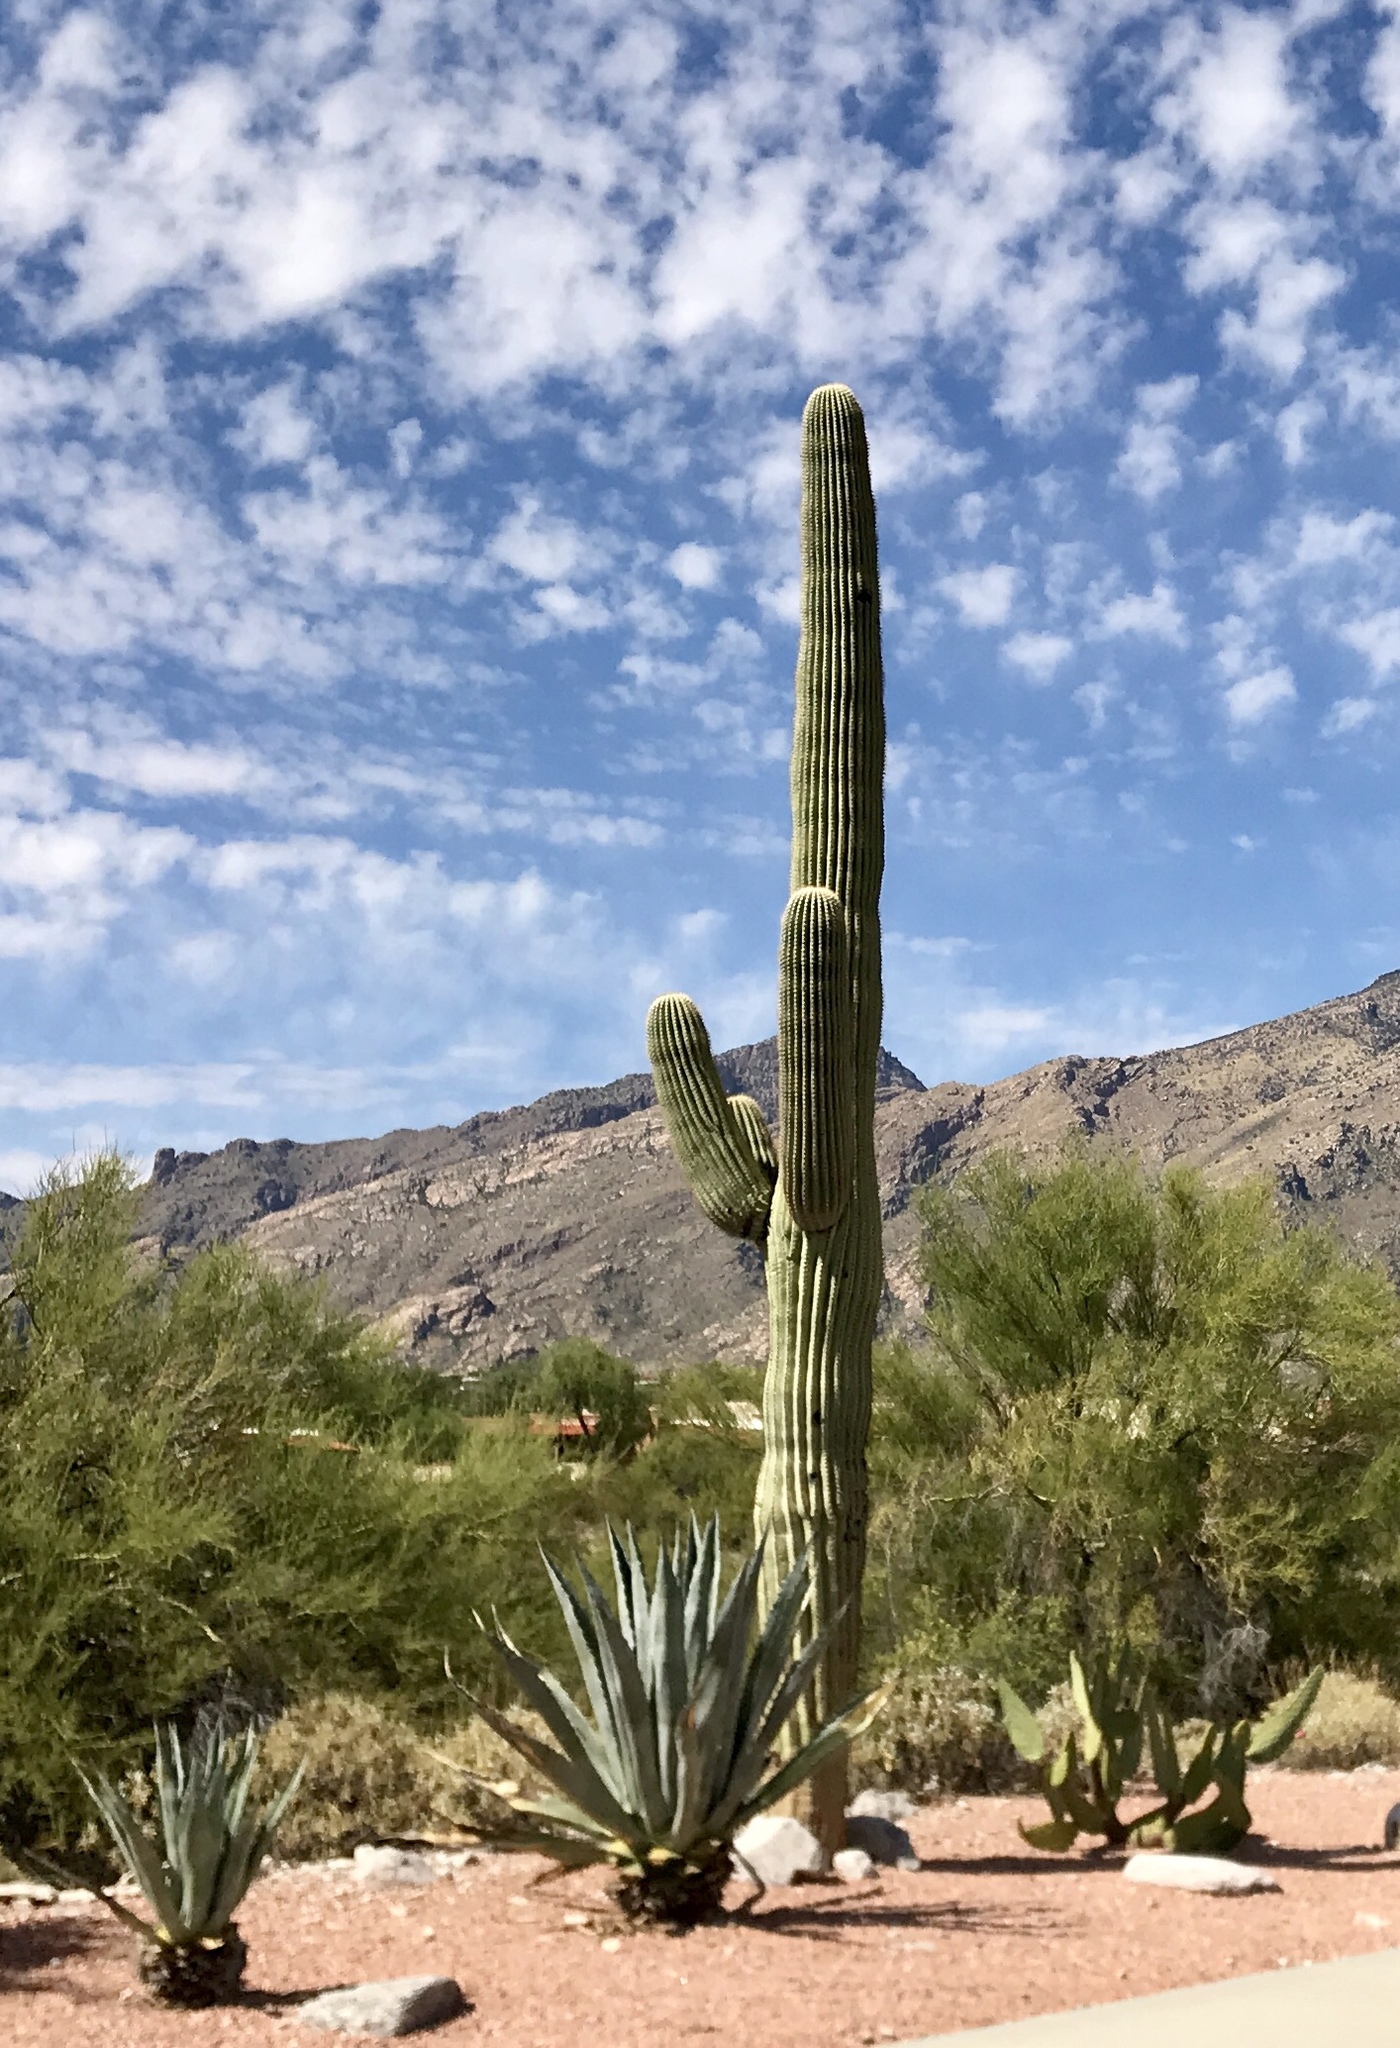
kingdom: Plantae
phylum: Tracheophyta
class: Magnoliopsida
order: Caryophyllales
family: Cactaceae
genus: Carnegiea
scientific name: Carnegiea gigantea
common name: Saguaro
